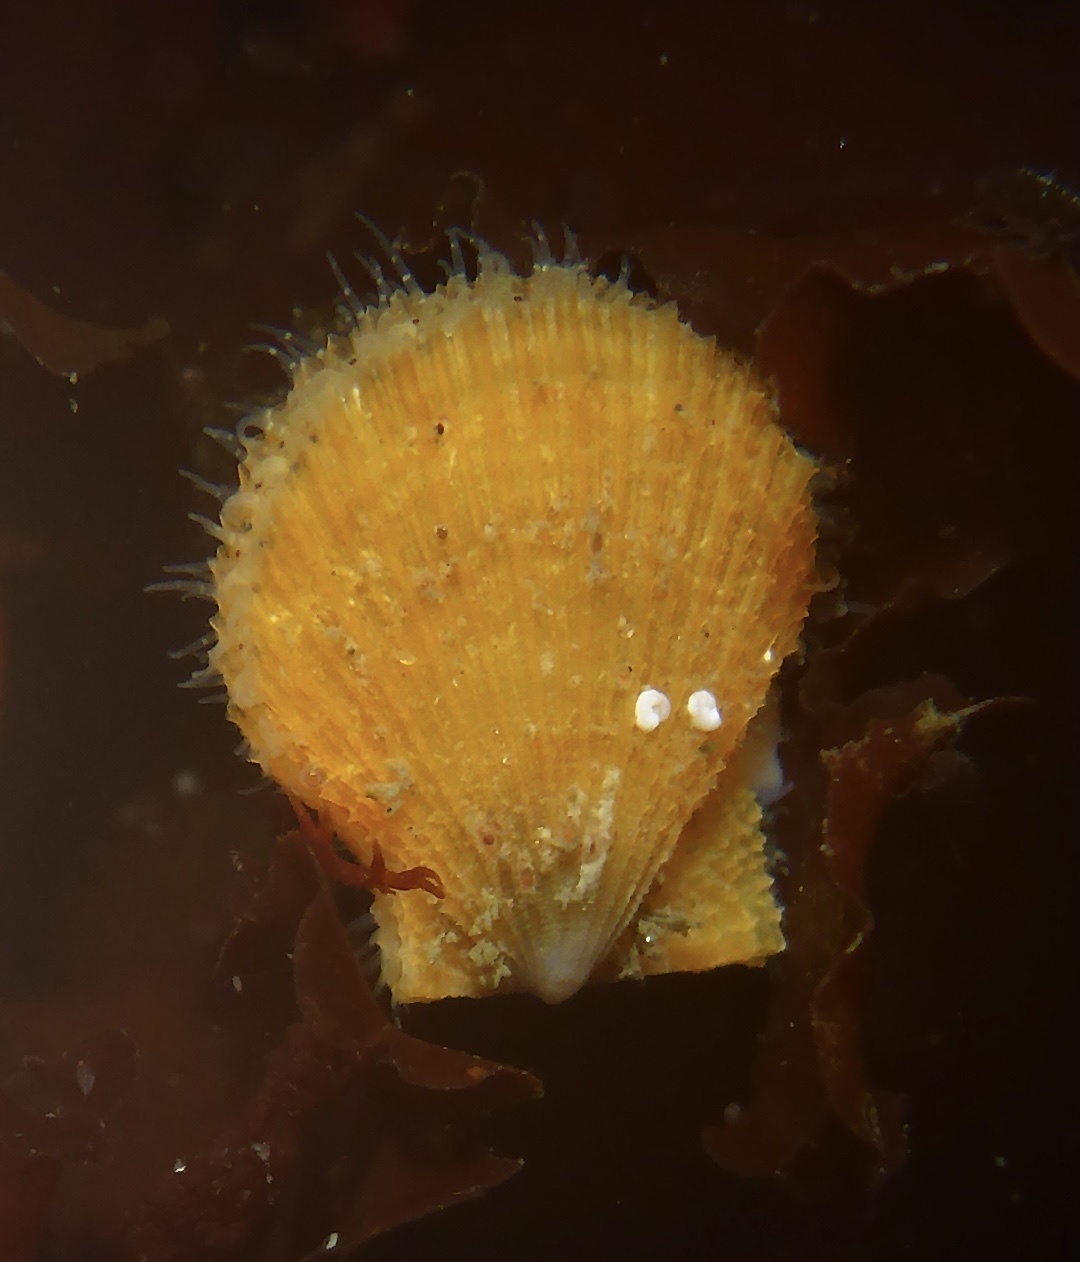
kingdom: Animalia
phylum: Mollusca
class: Bivalvia
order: Pectinida
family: Pectinidae
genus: Crassadoma
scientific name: Crassadoma gigantea
